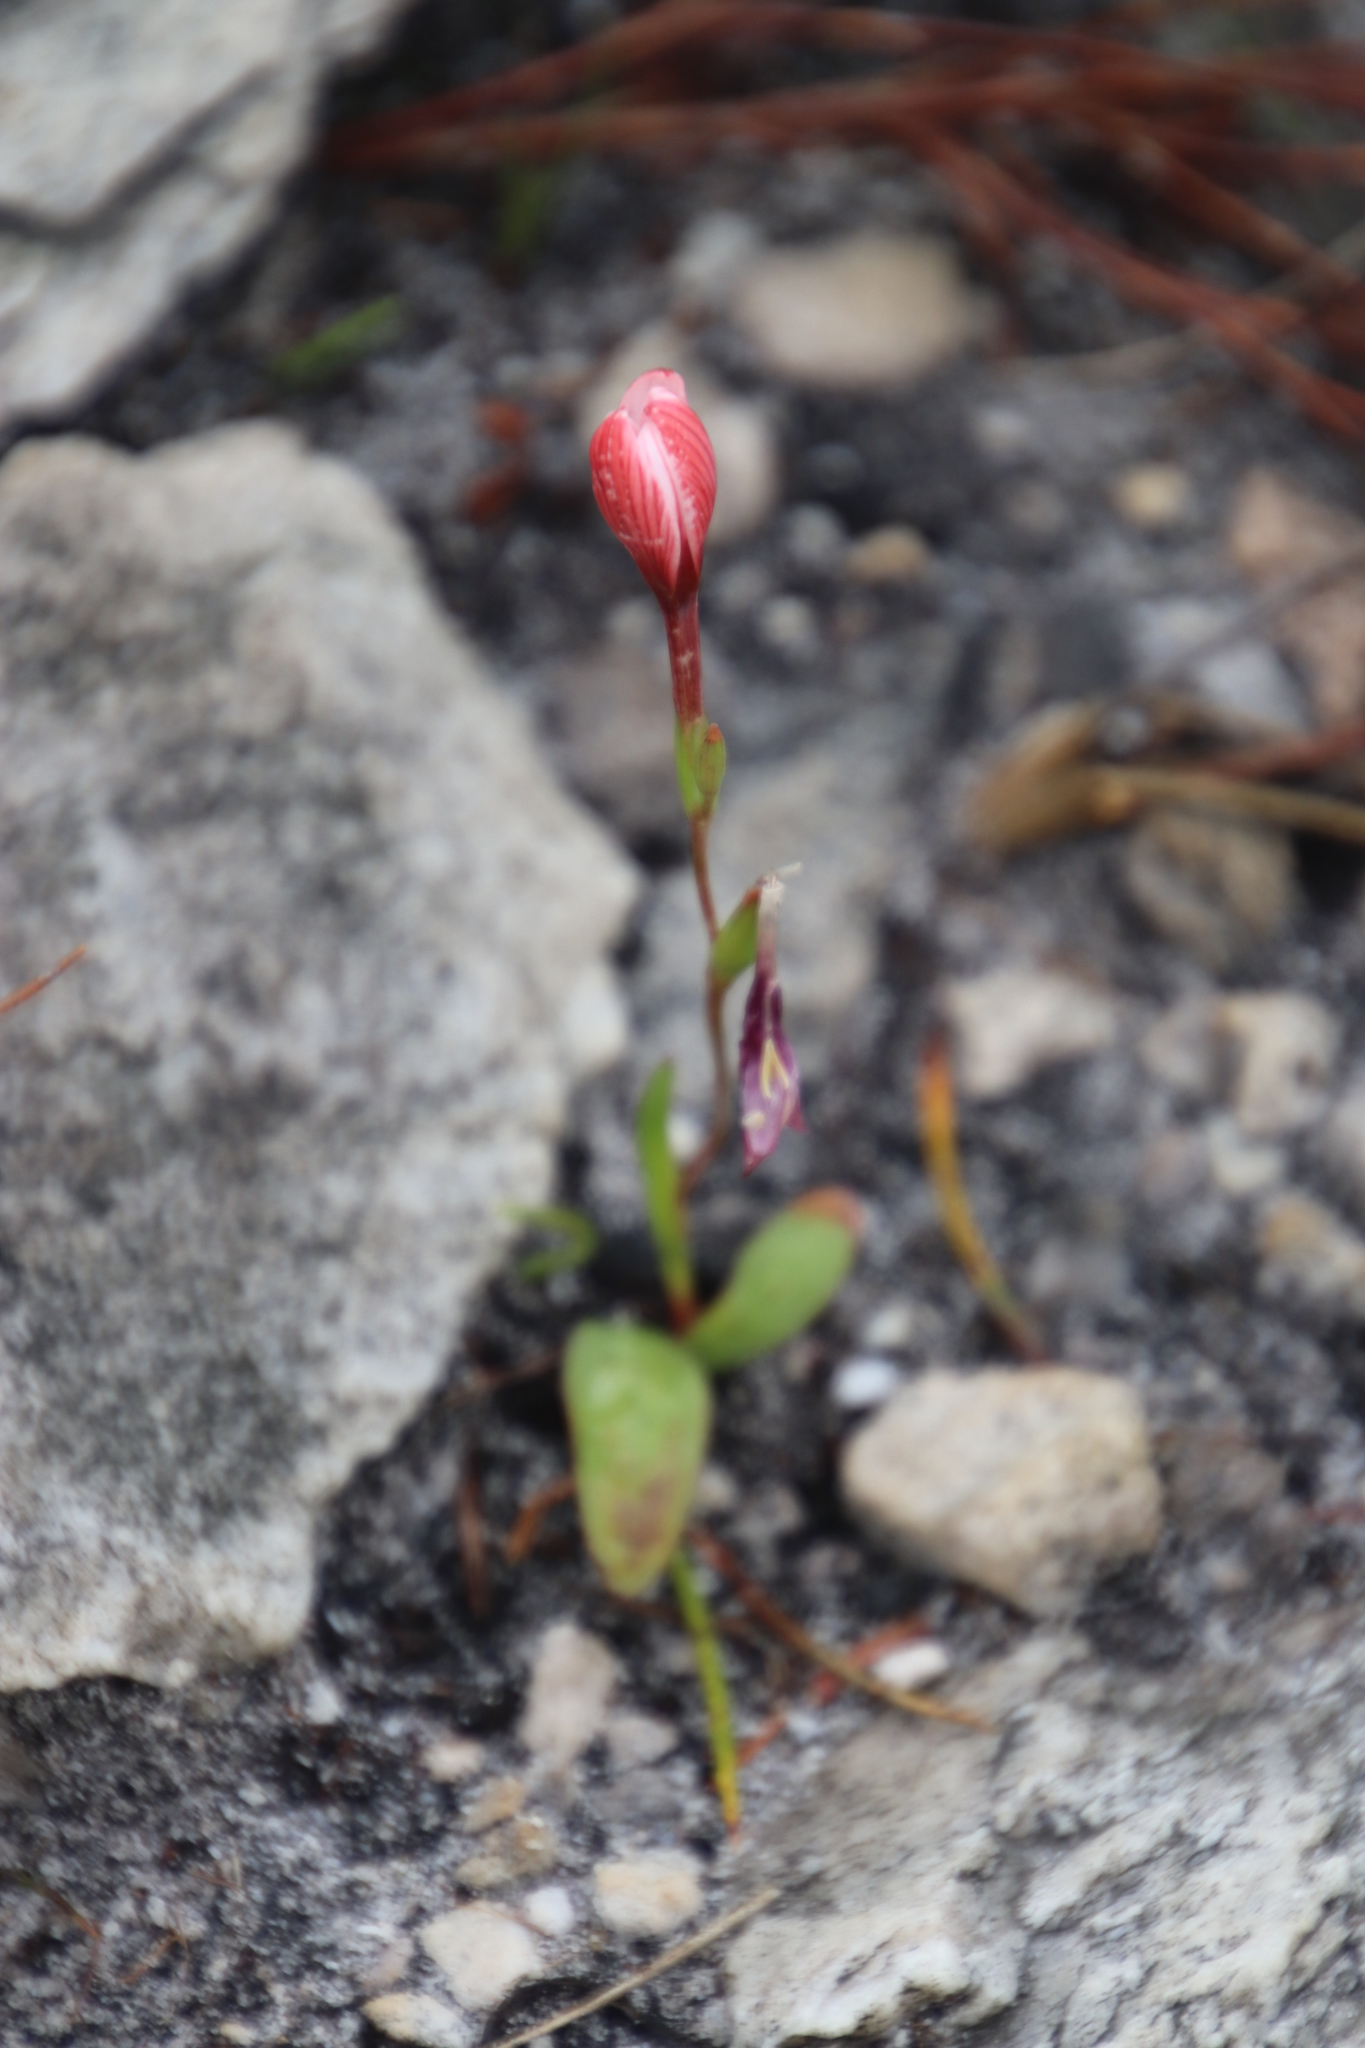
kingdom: Plantae
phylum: Tracheophyta
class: Liliopsida
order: Asparagales
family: Iridaceae
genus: Geissorhiza
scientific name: Geissorhiza ovata
